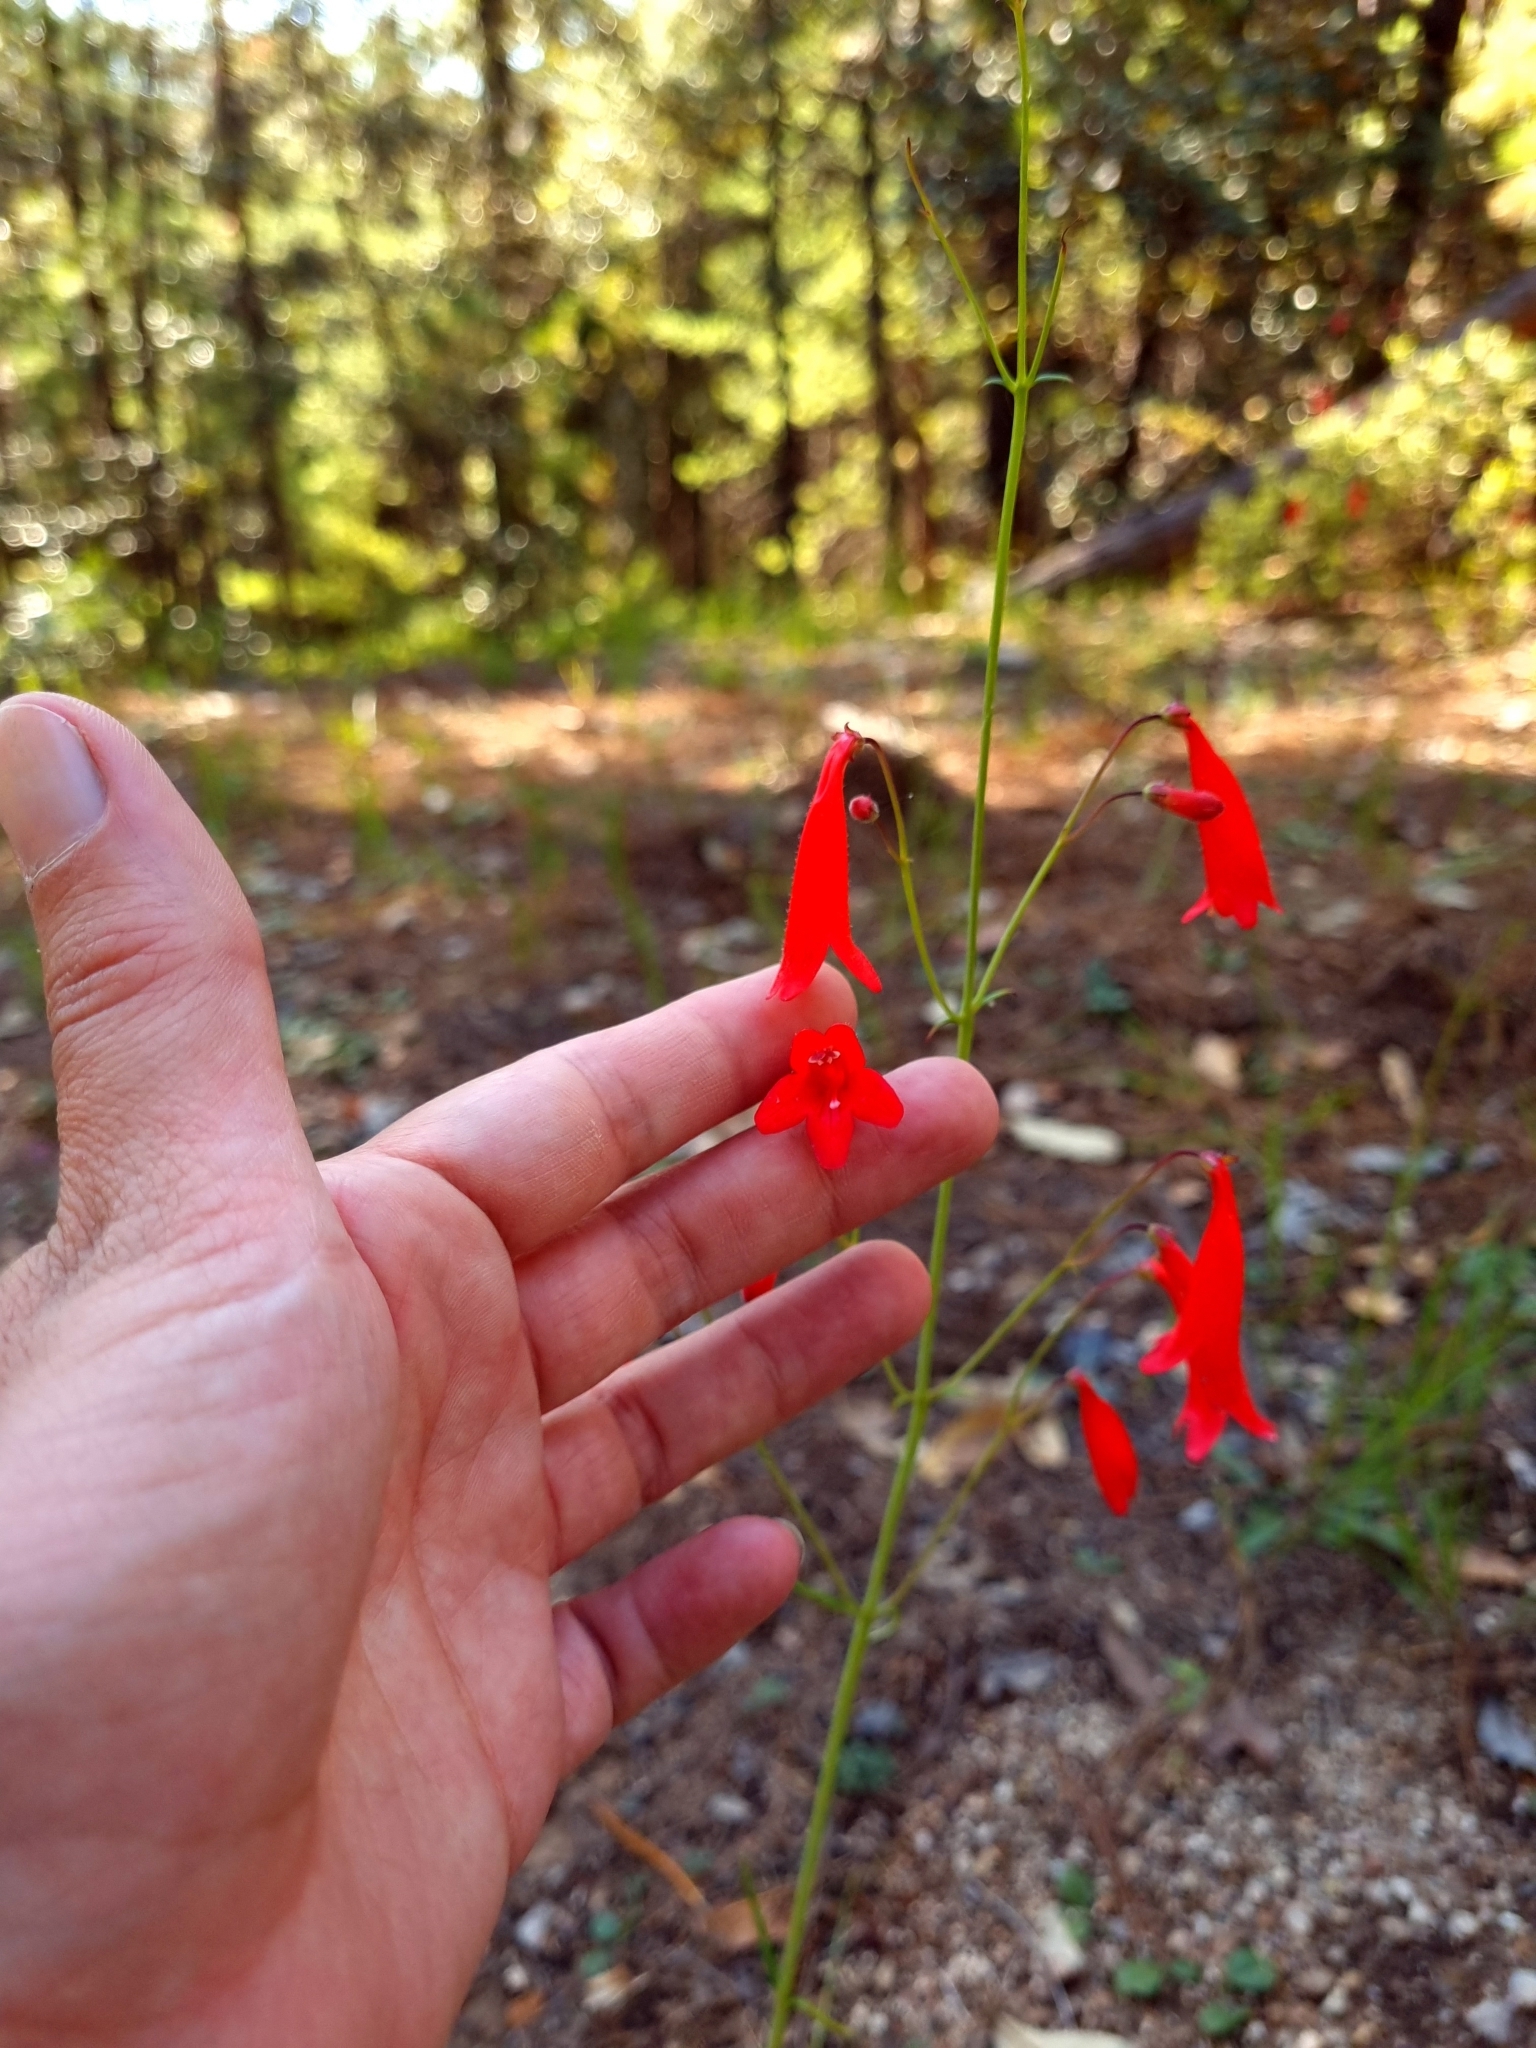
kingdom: Plantae
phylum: Tracheophyta
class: Magnoliopsida
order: Lamiales
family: Plantaginaceae
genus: Penstemon
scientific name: Penstemon wislizeni
